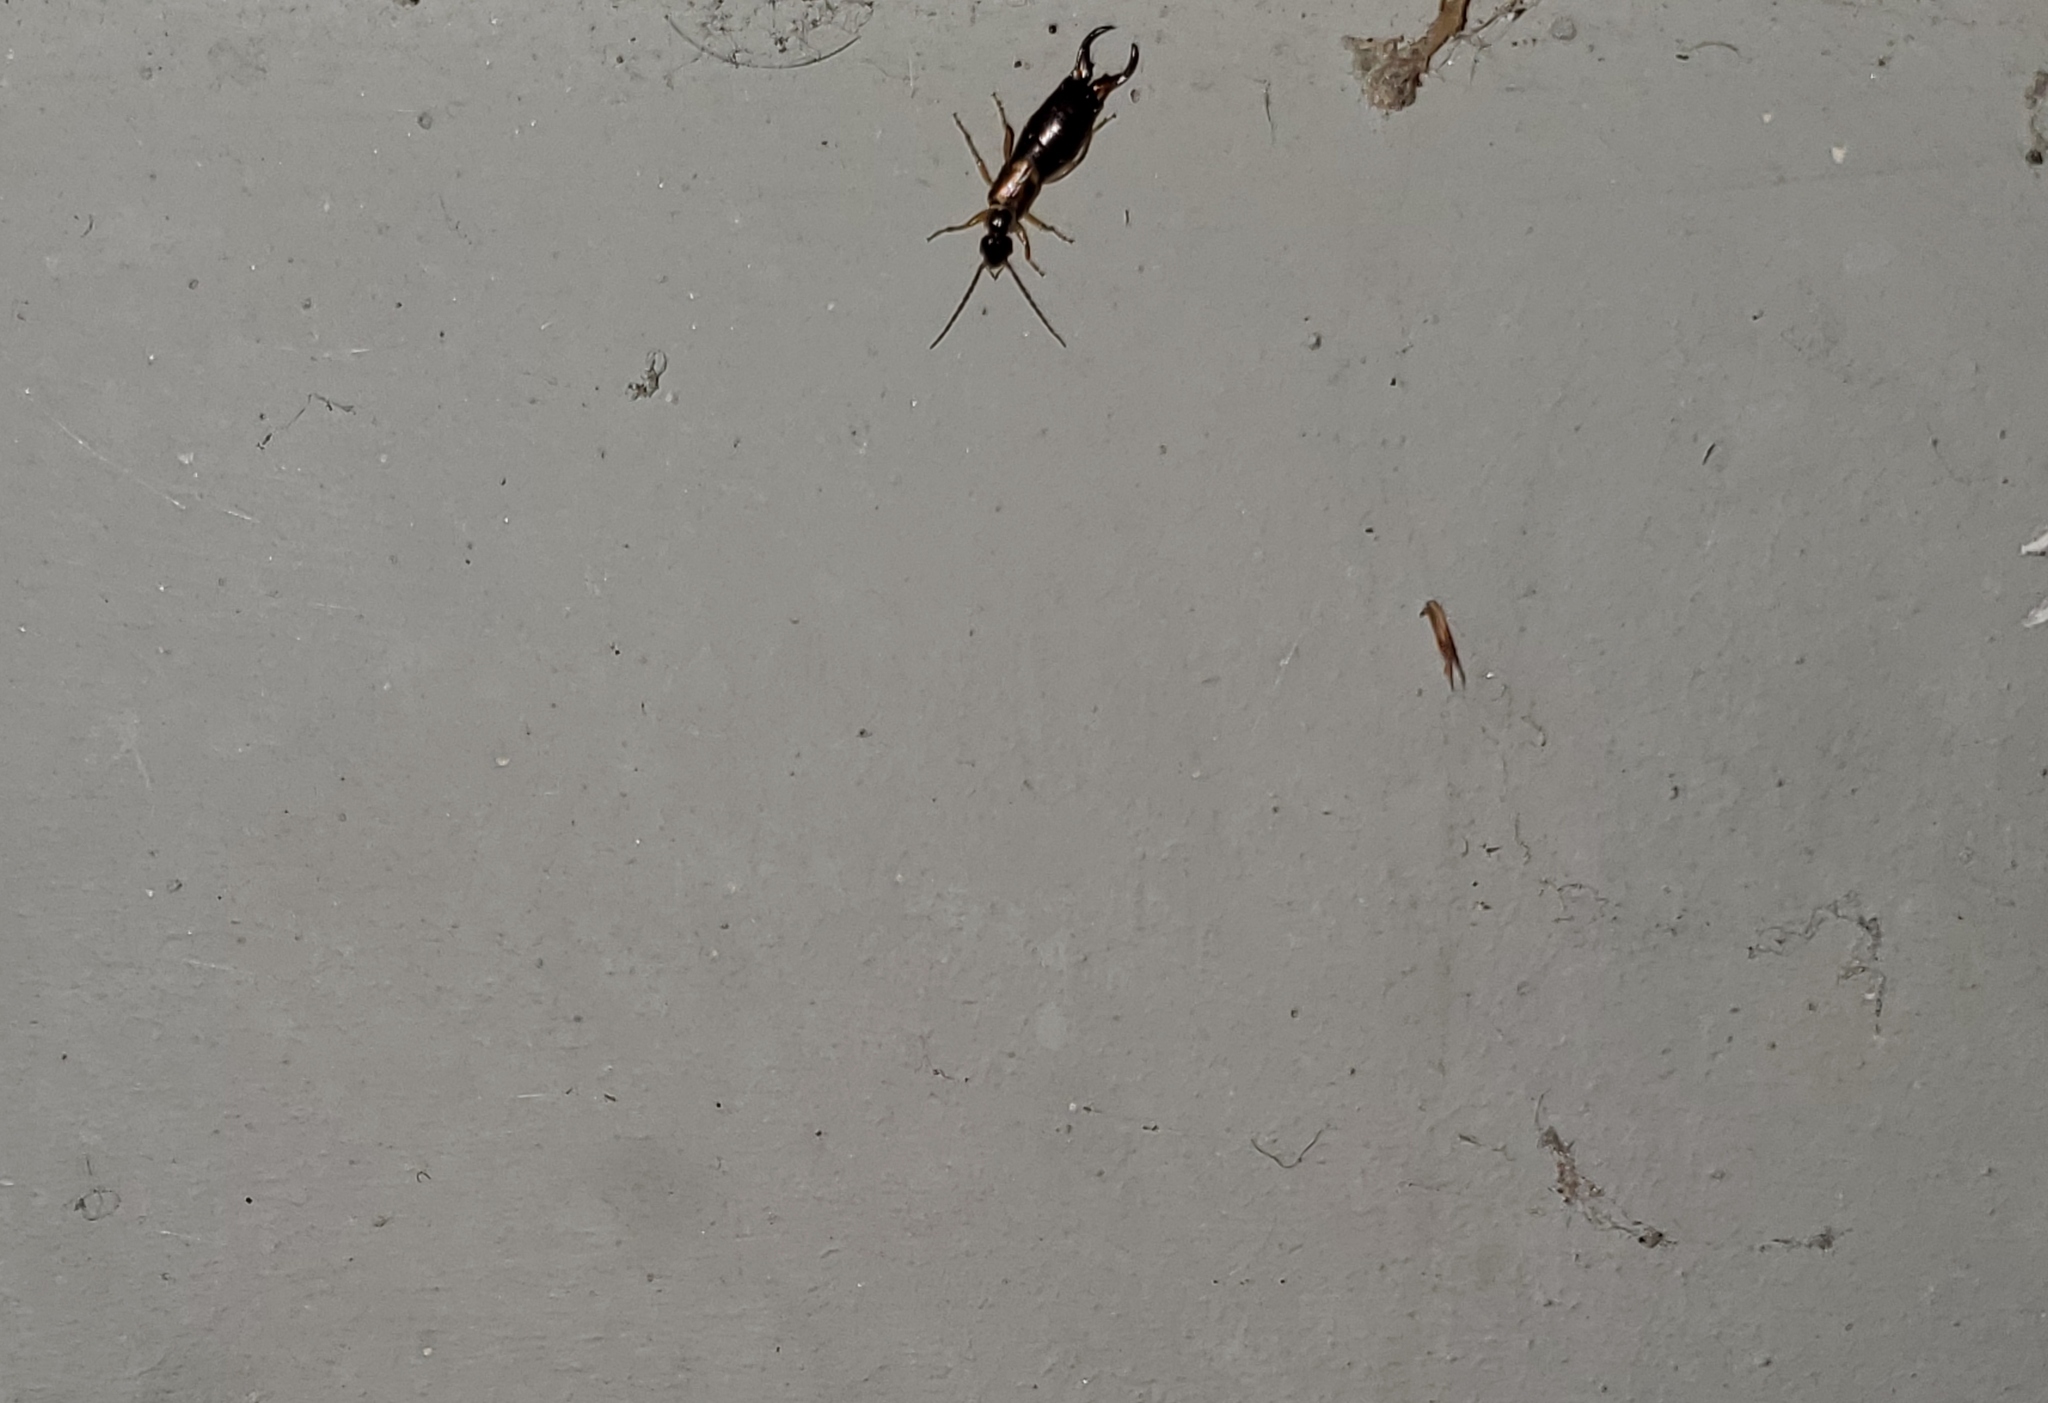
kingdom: Animalia
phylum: Arthropoda
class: Insecta
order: Dermaptera
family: Forficulidae
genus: Forficula
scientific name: Forficula dentata
